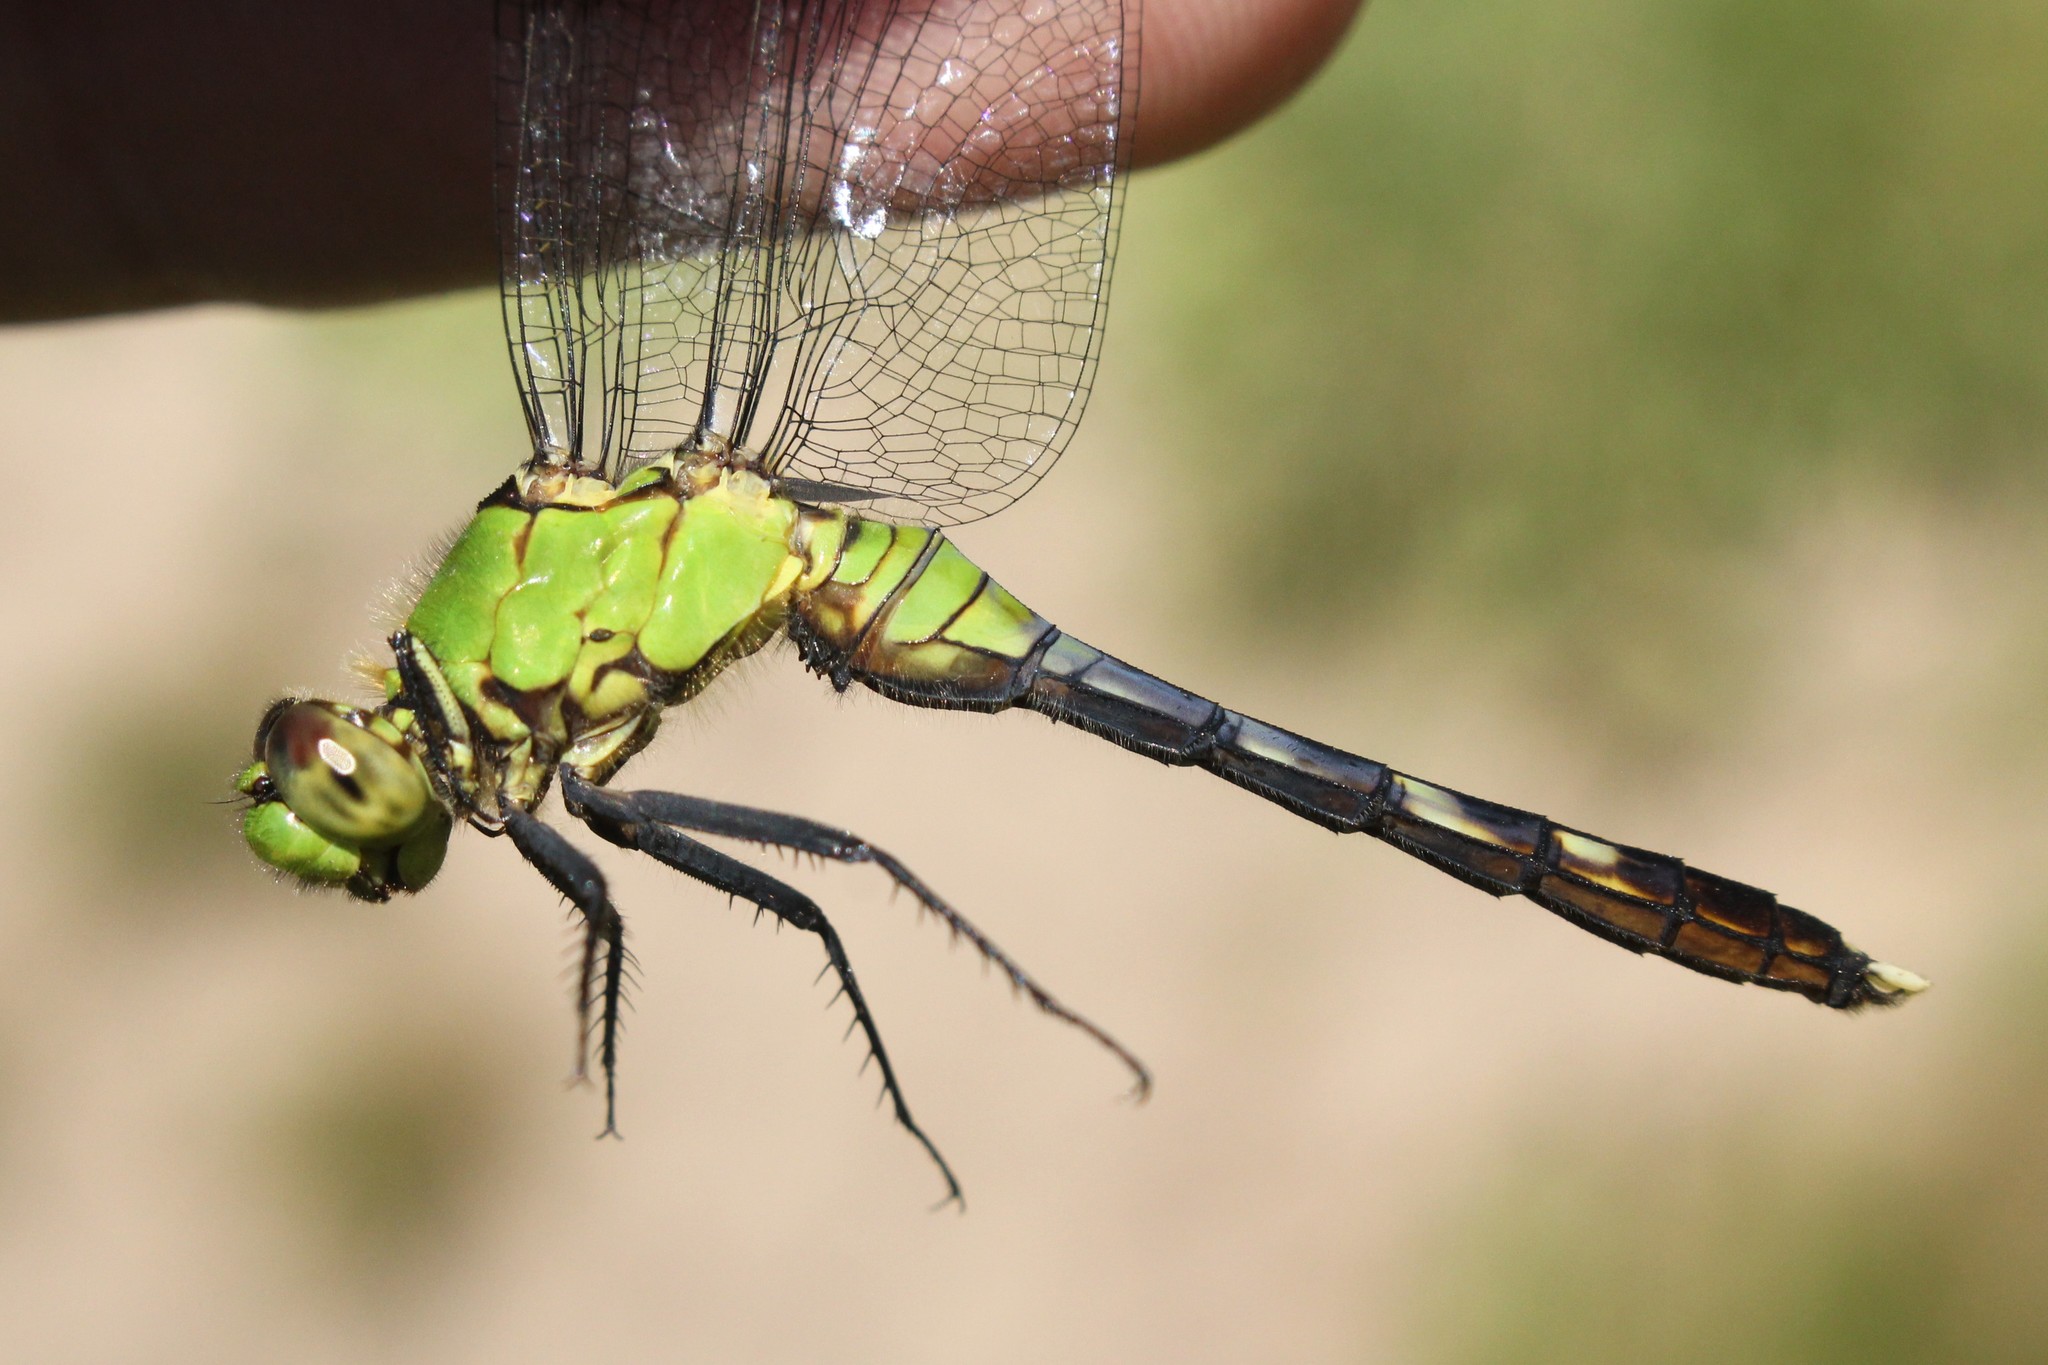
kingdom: Animalia
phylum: Arthropoda
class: Insecta
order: Odonata
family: Libellulidae
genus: Erythemis
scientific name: Erythemis simplicicollis
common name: Eastern pondhawk
